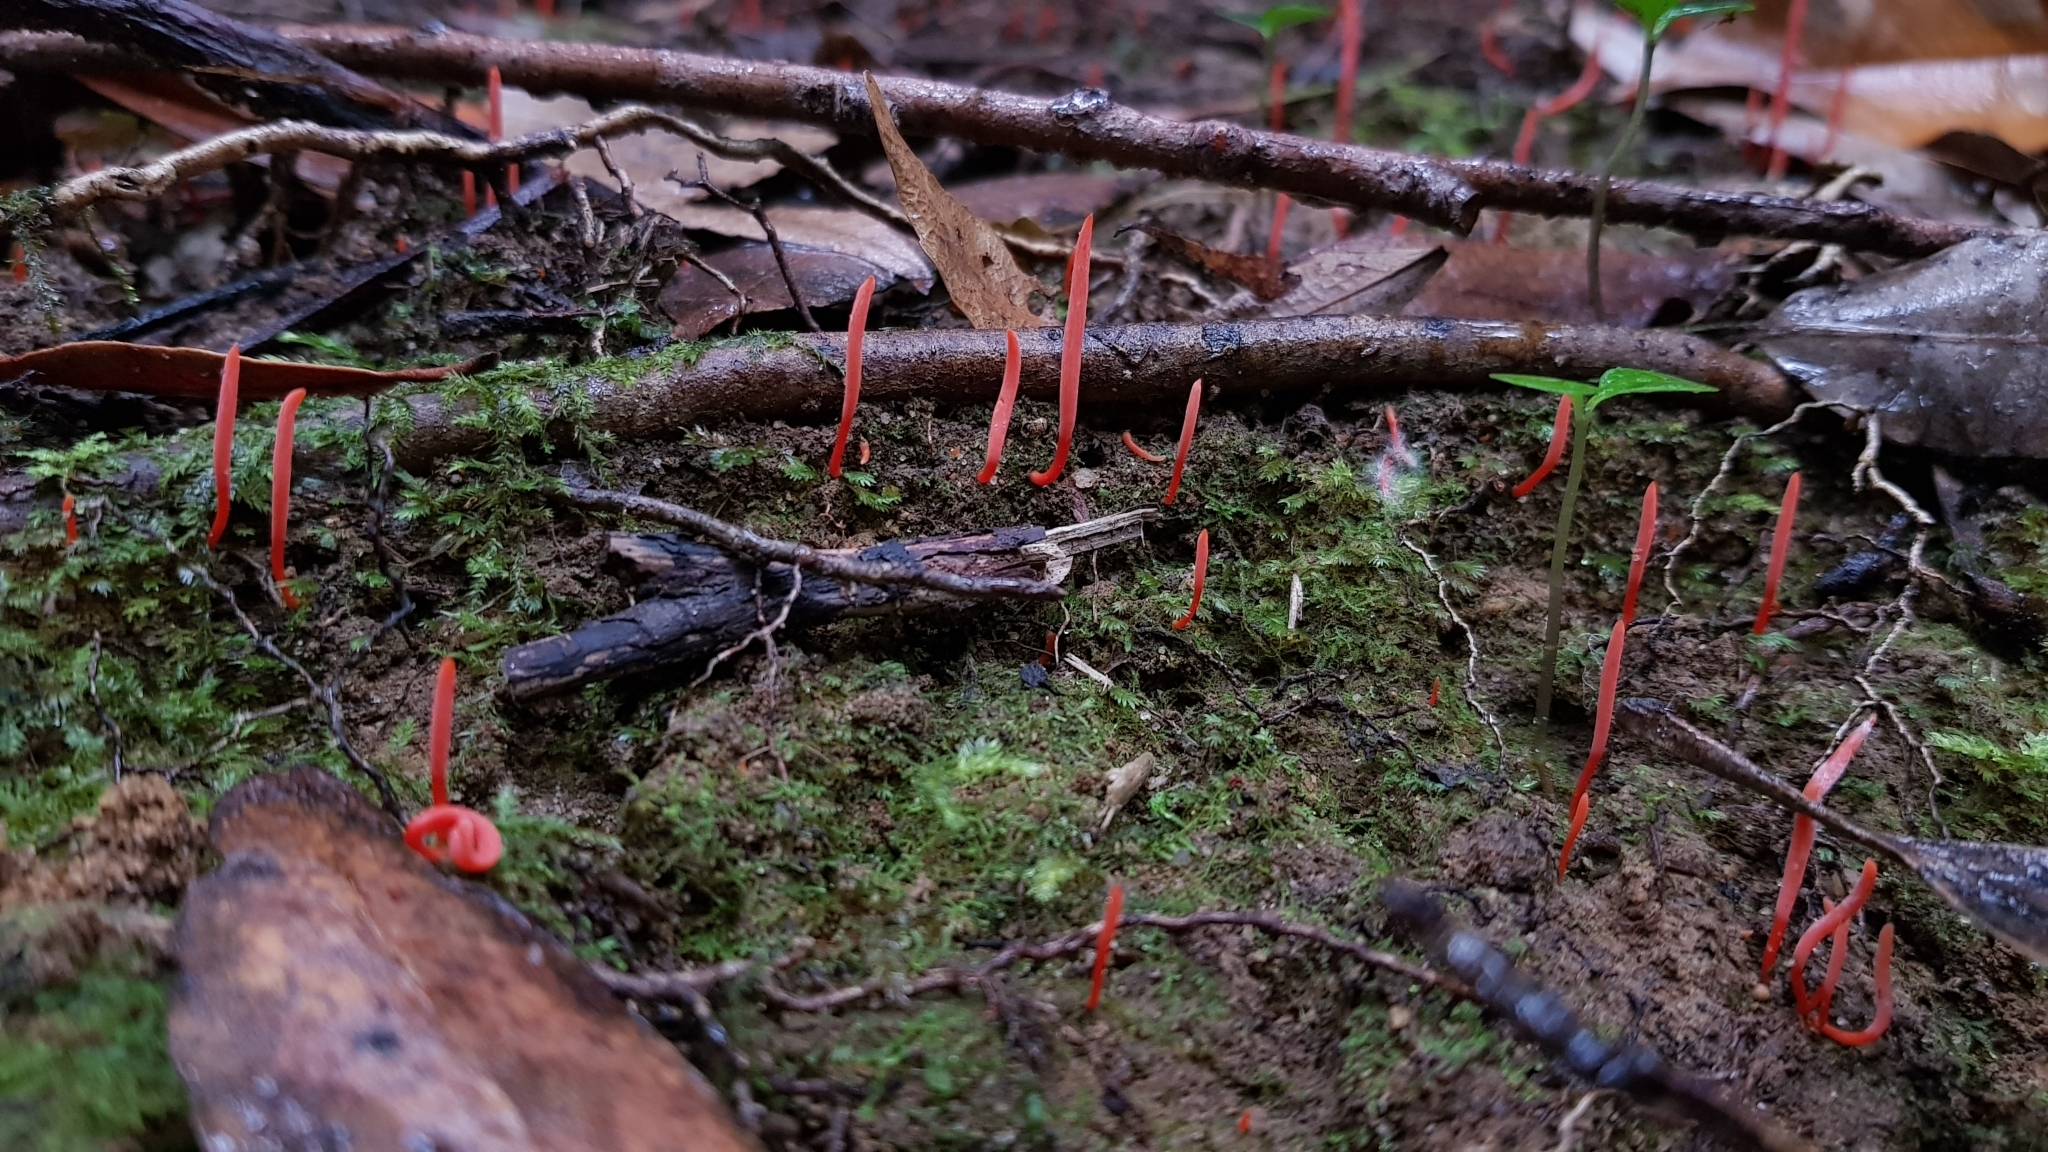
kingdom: Fungi
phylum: Basidiomycota
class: Agaricomycetes
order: Agaricales
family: Clavariaceae
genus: Clavulinopsis
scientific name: Clavulinopsis corallinorosacea
